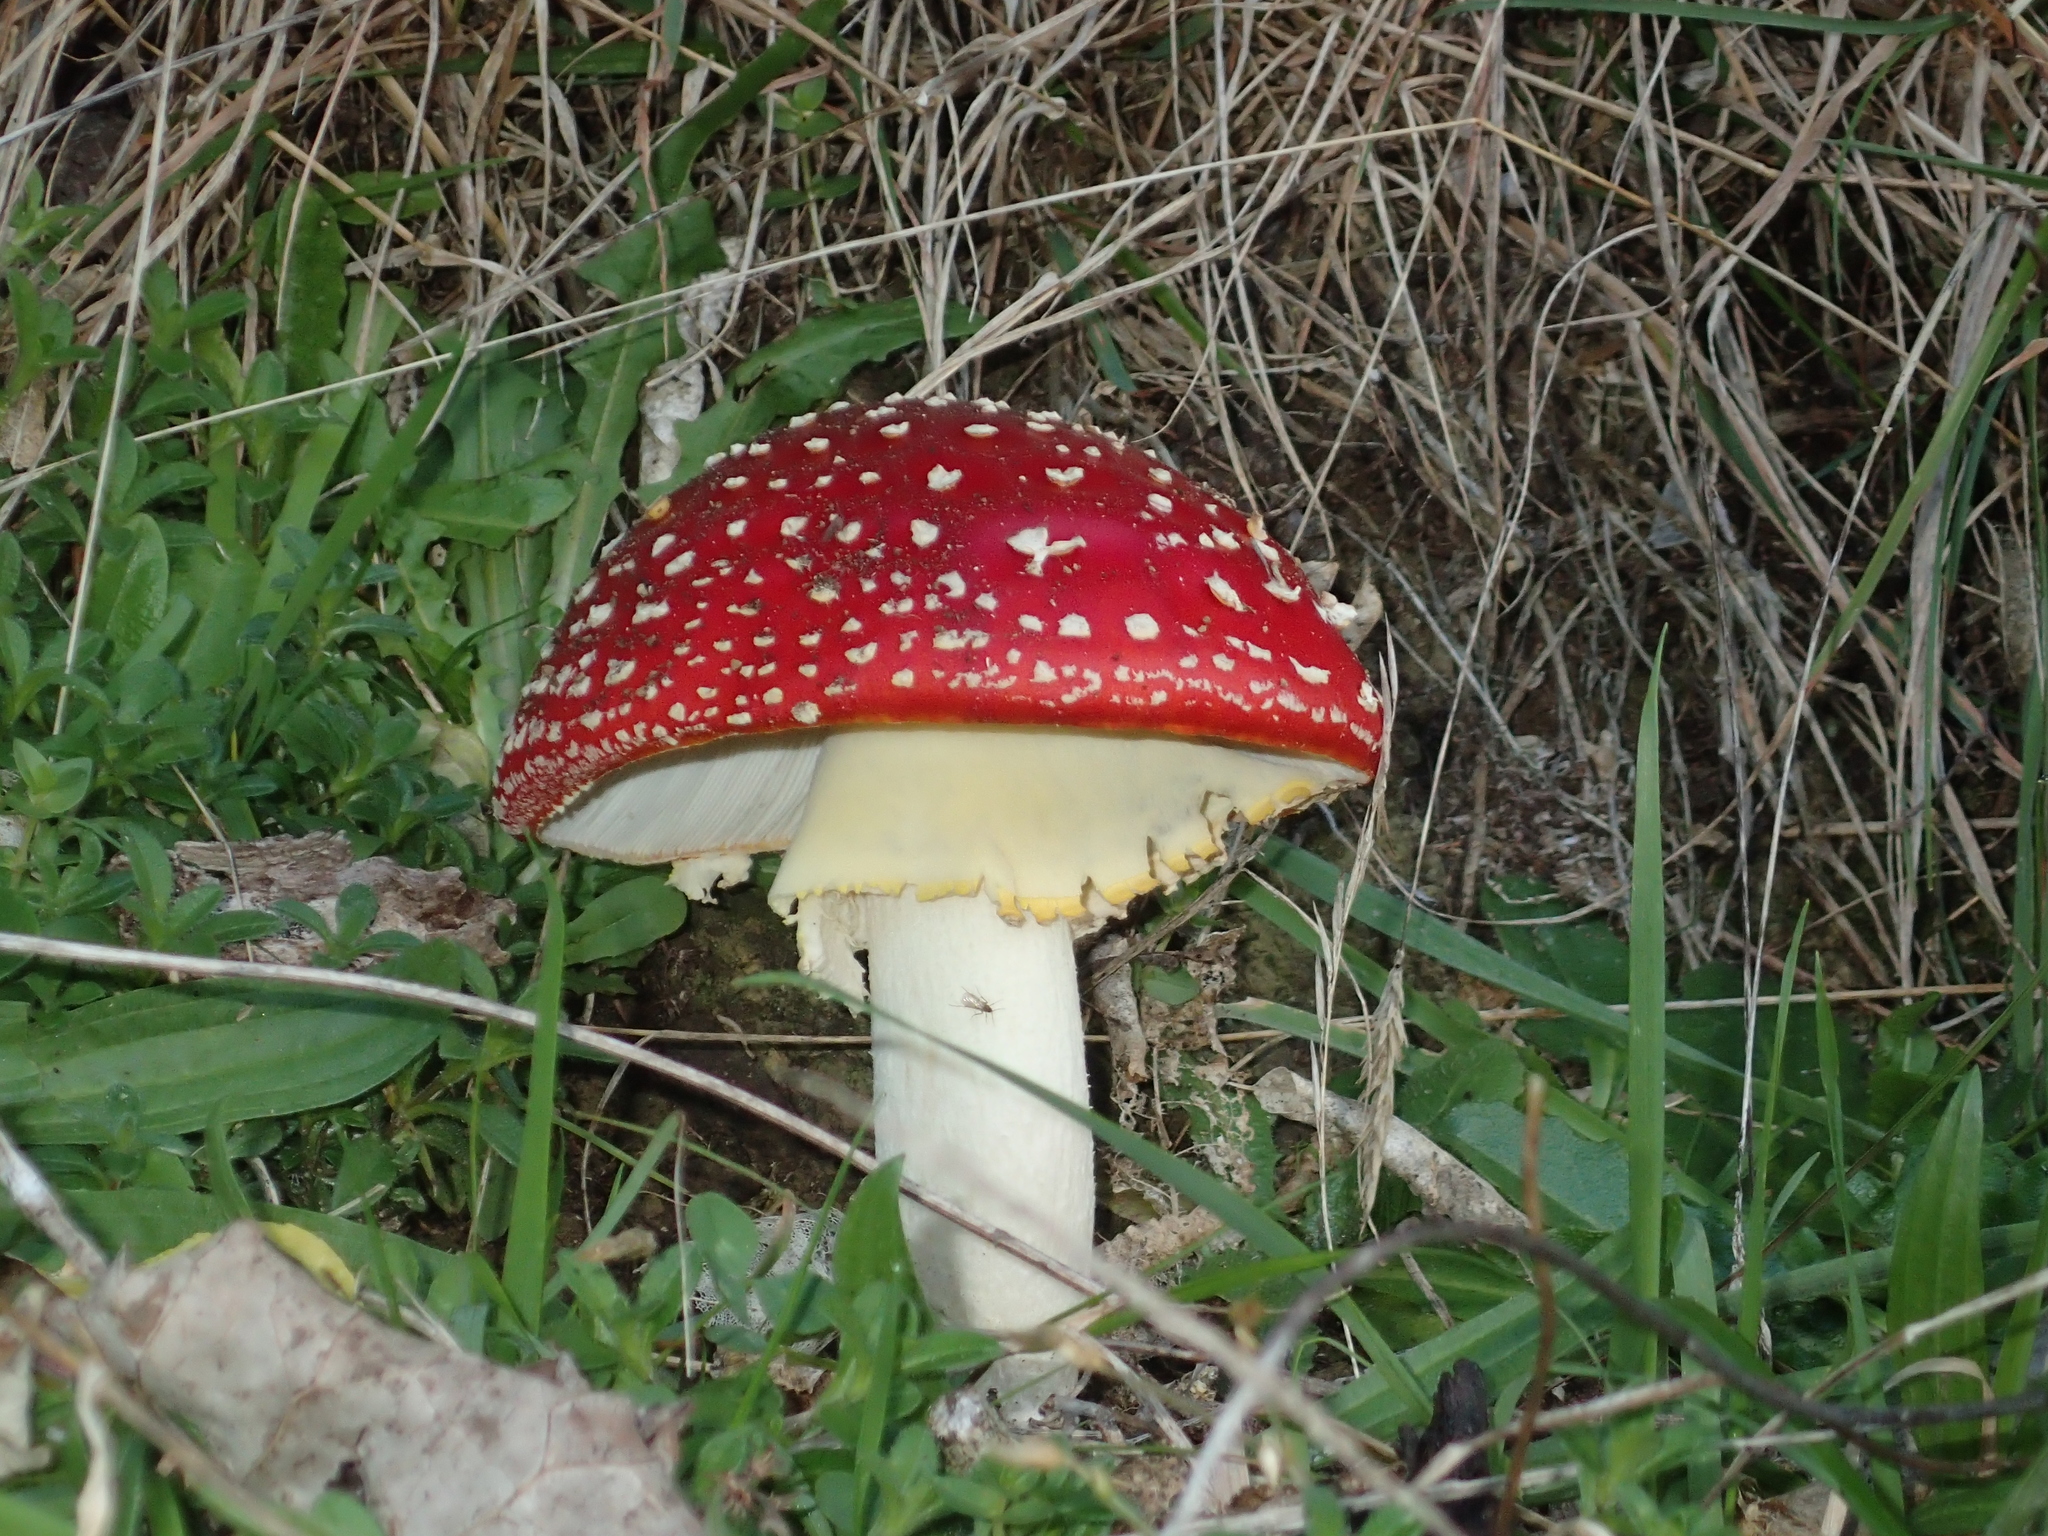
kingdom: Fungi
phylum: Basidiomycota
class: Agaricomycetes
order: Agaricales
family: Amanitaceae
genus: Amanita
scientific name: Amanita muscaria
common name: Fly agaric
